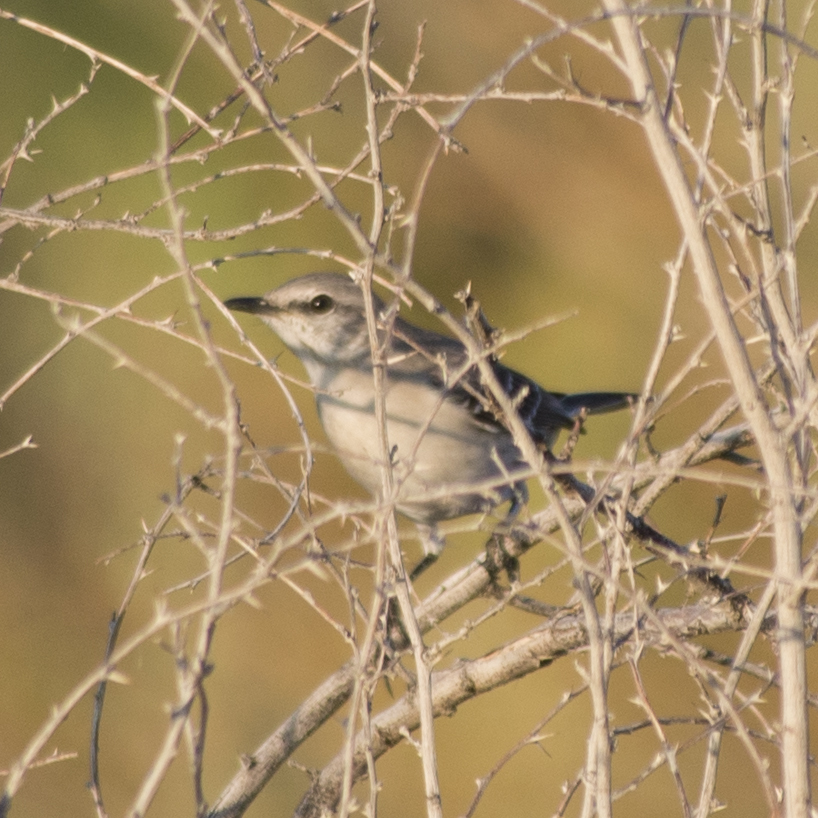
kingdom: Animalia
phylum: Chordata
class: Aves
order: Passeriformes
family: Mimidae
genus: Mimus
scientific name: Mimus polyglottos
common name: Northern mockingbird
